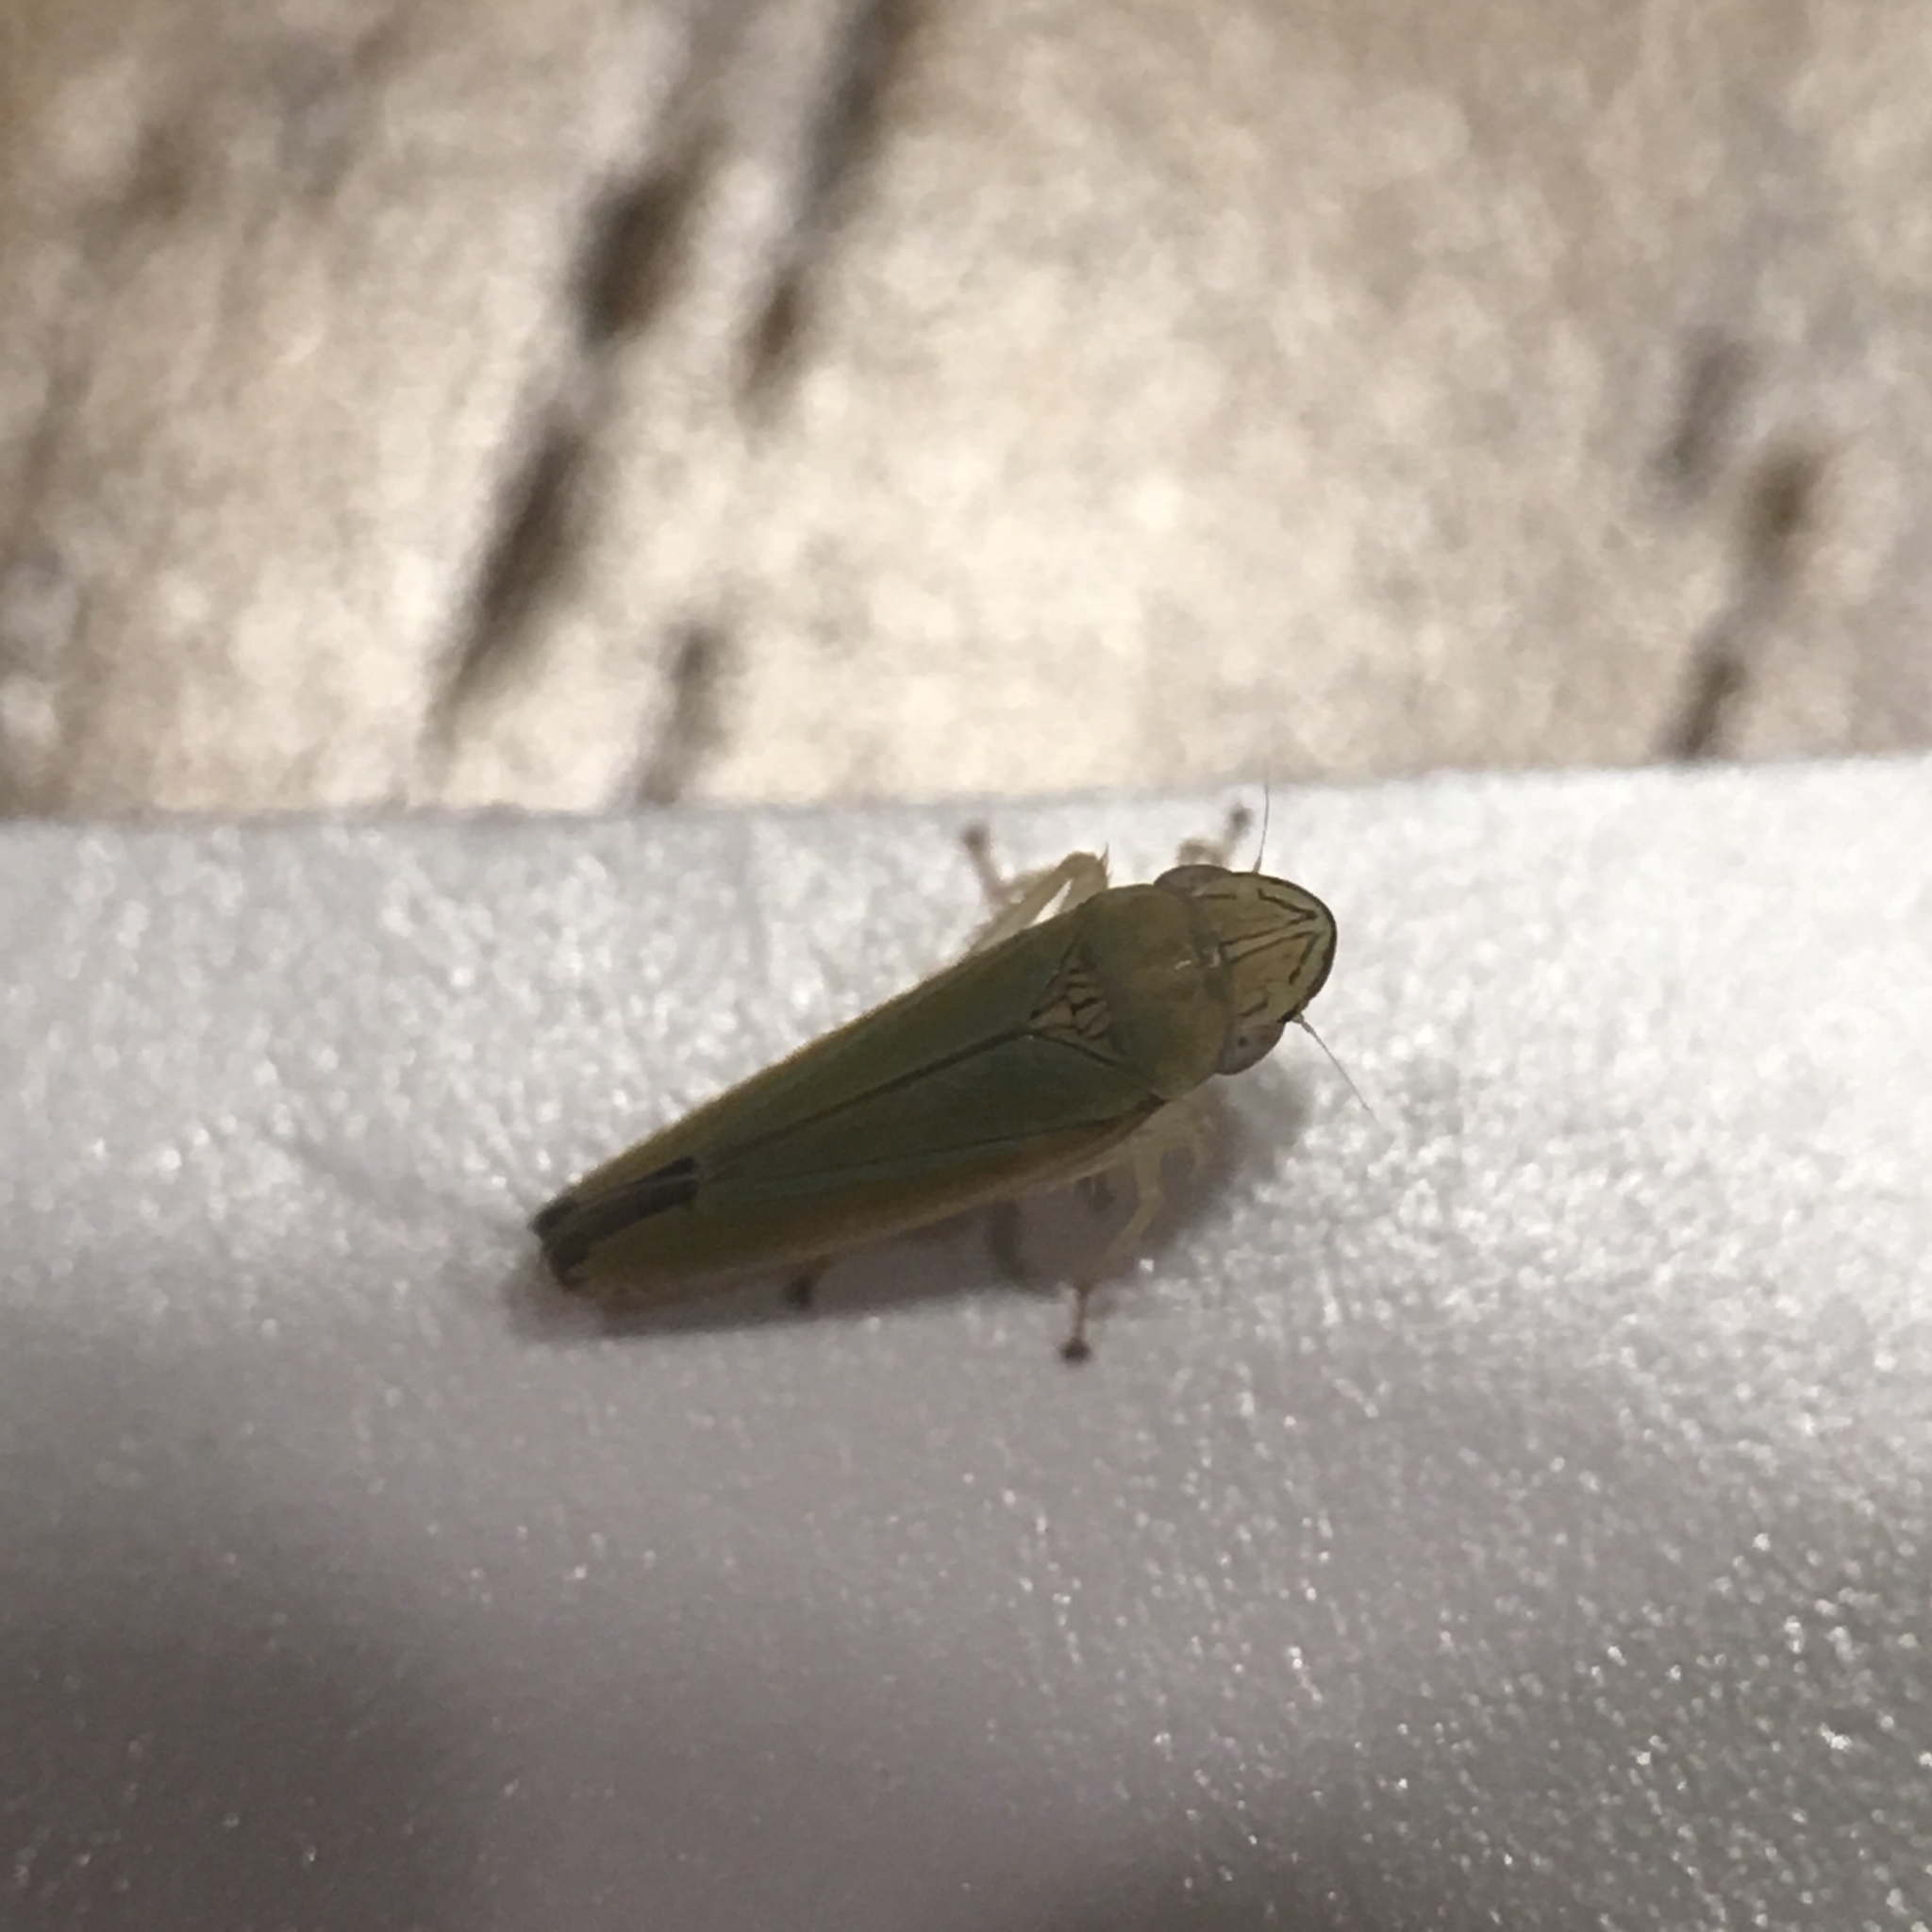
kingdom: Animalia
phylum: Arthropoda
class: Insecta
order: Hemiptera
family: Cicadellidae
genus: Graphocephala
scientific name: Graphocephala versuta
